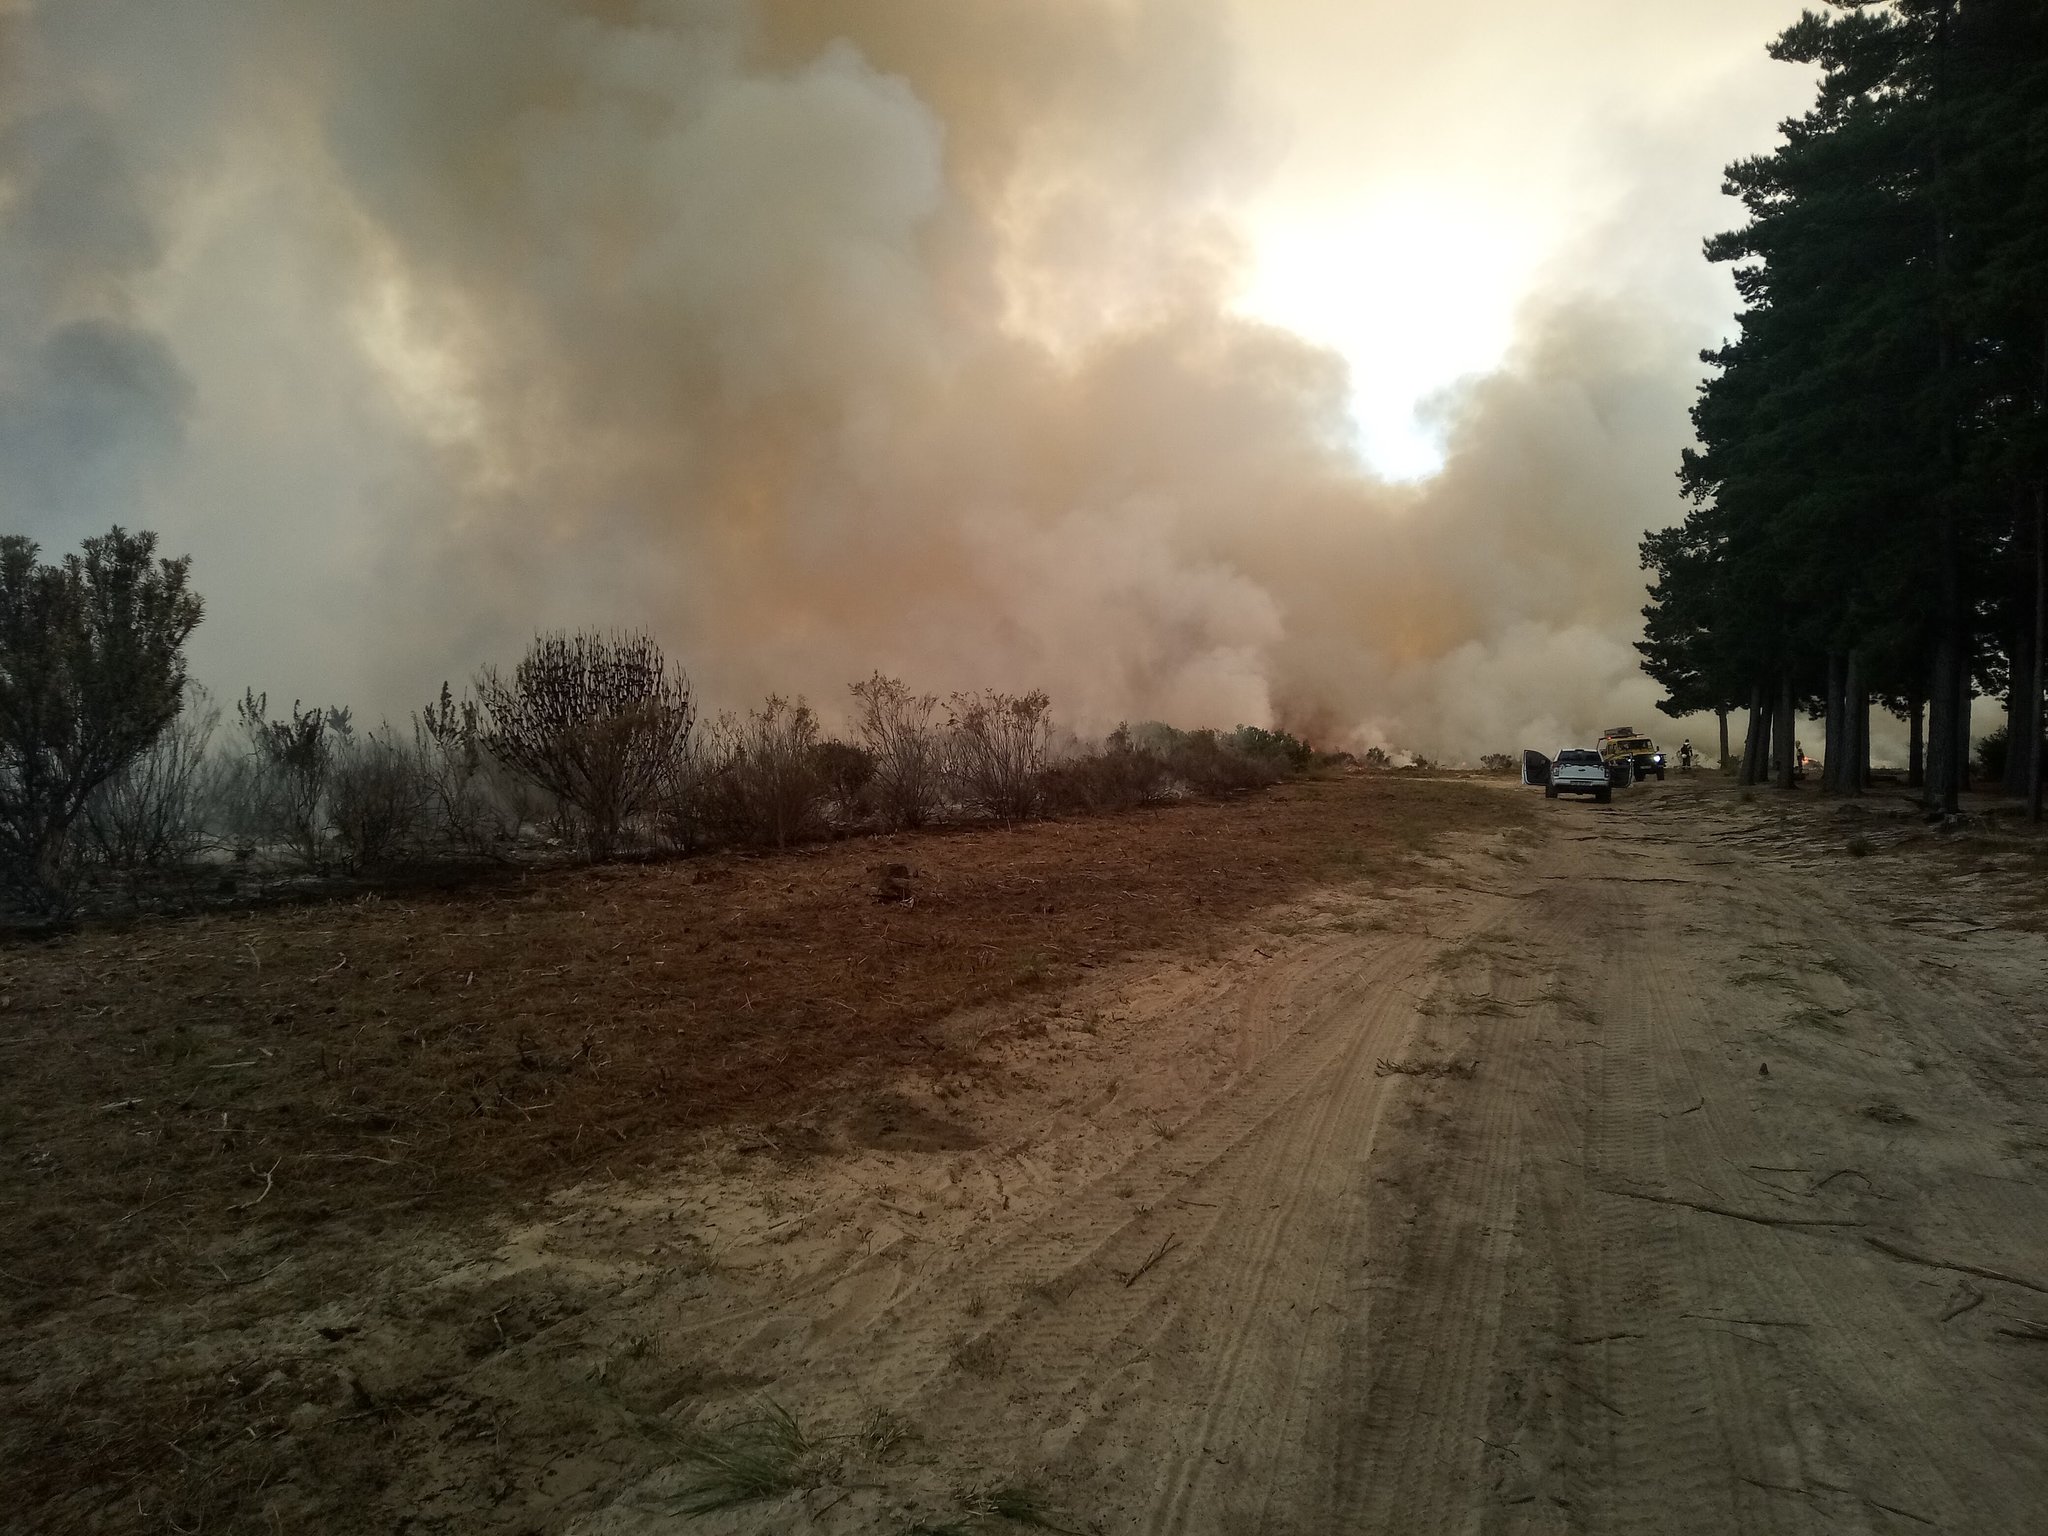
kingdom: Plantae
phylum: Tracheophyta
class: Magnoliopsida
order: Proteales
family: Proteaceae
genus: Protea
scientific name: Protea repens
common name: Sugarbush
